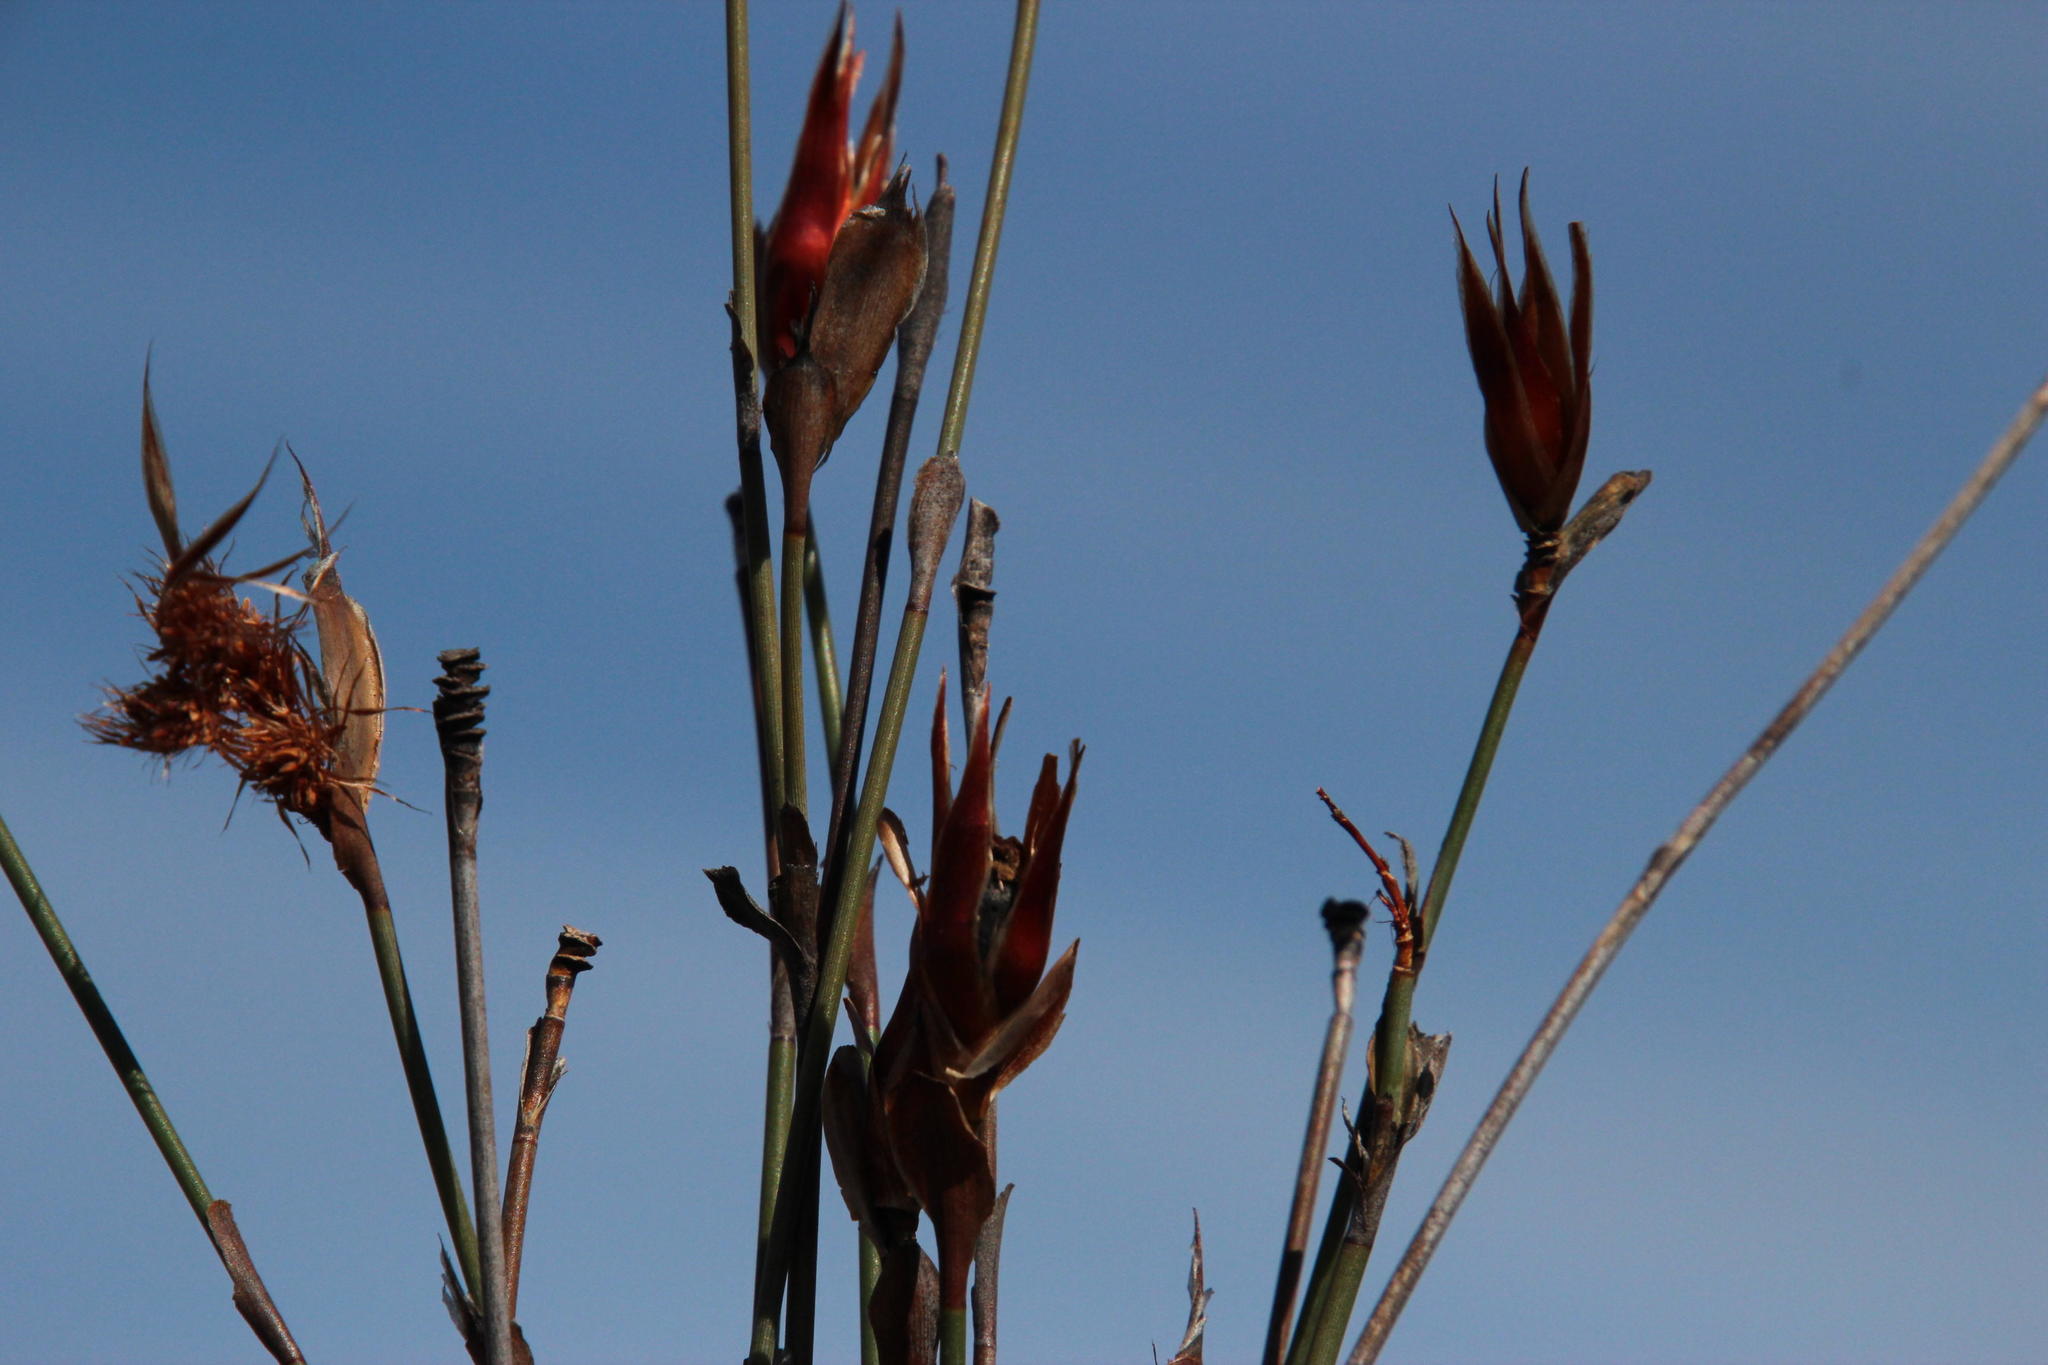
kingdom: Plantae
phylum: Tracheophyta
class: Liliopsida
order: Poales
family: Restionaceae
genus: Willdenowia
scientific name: Willdenowia incurvata
